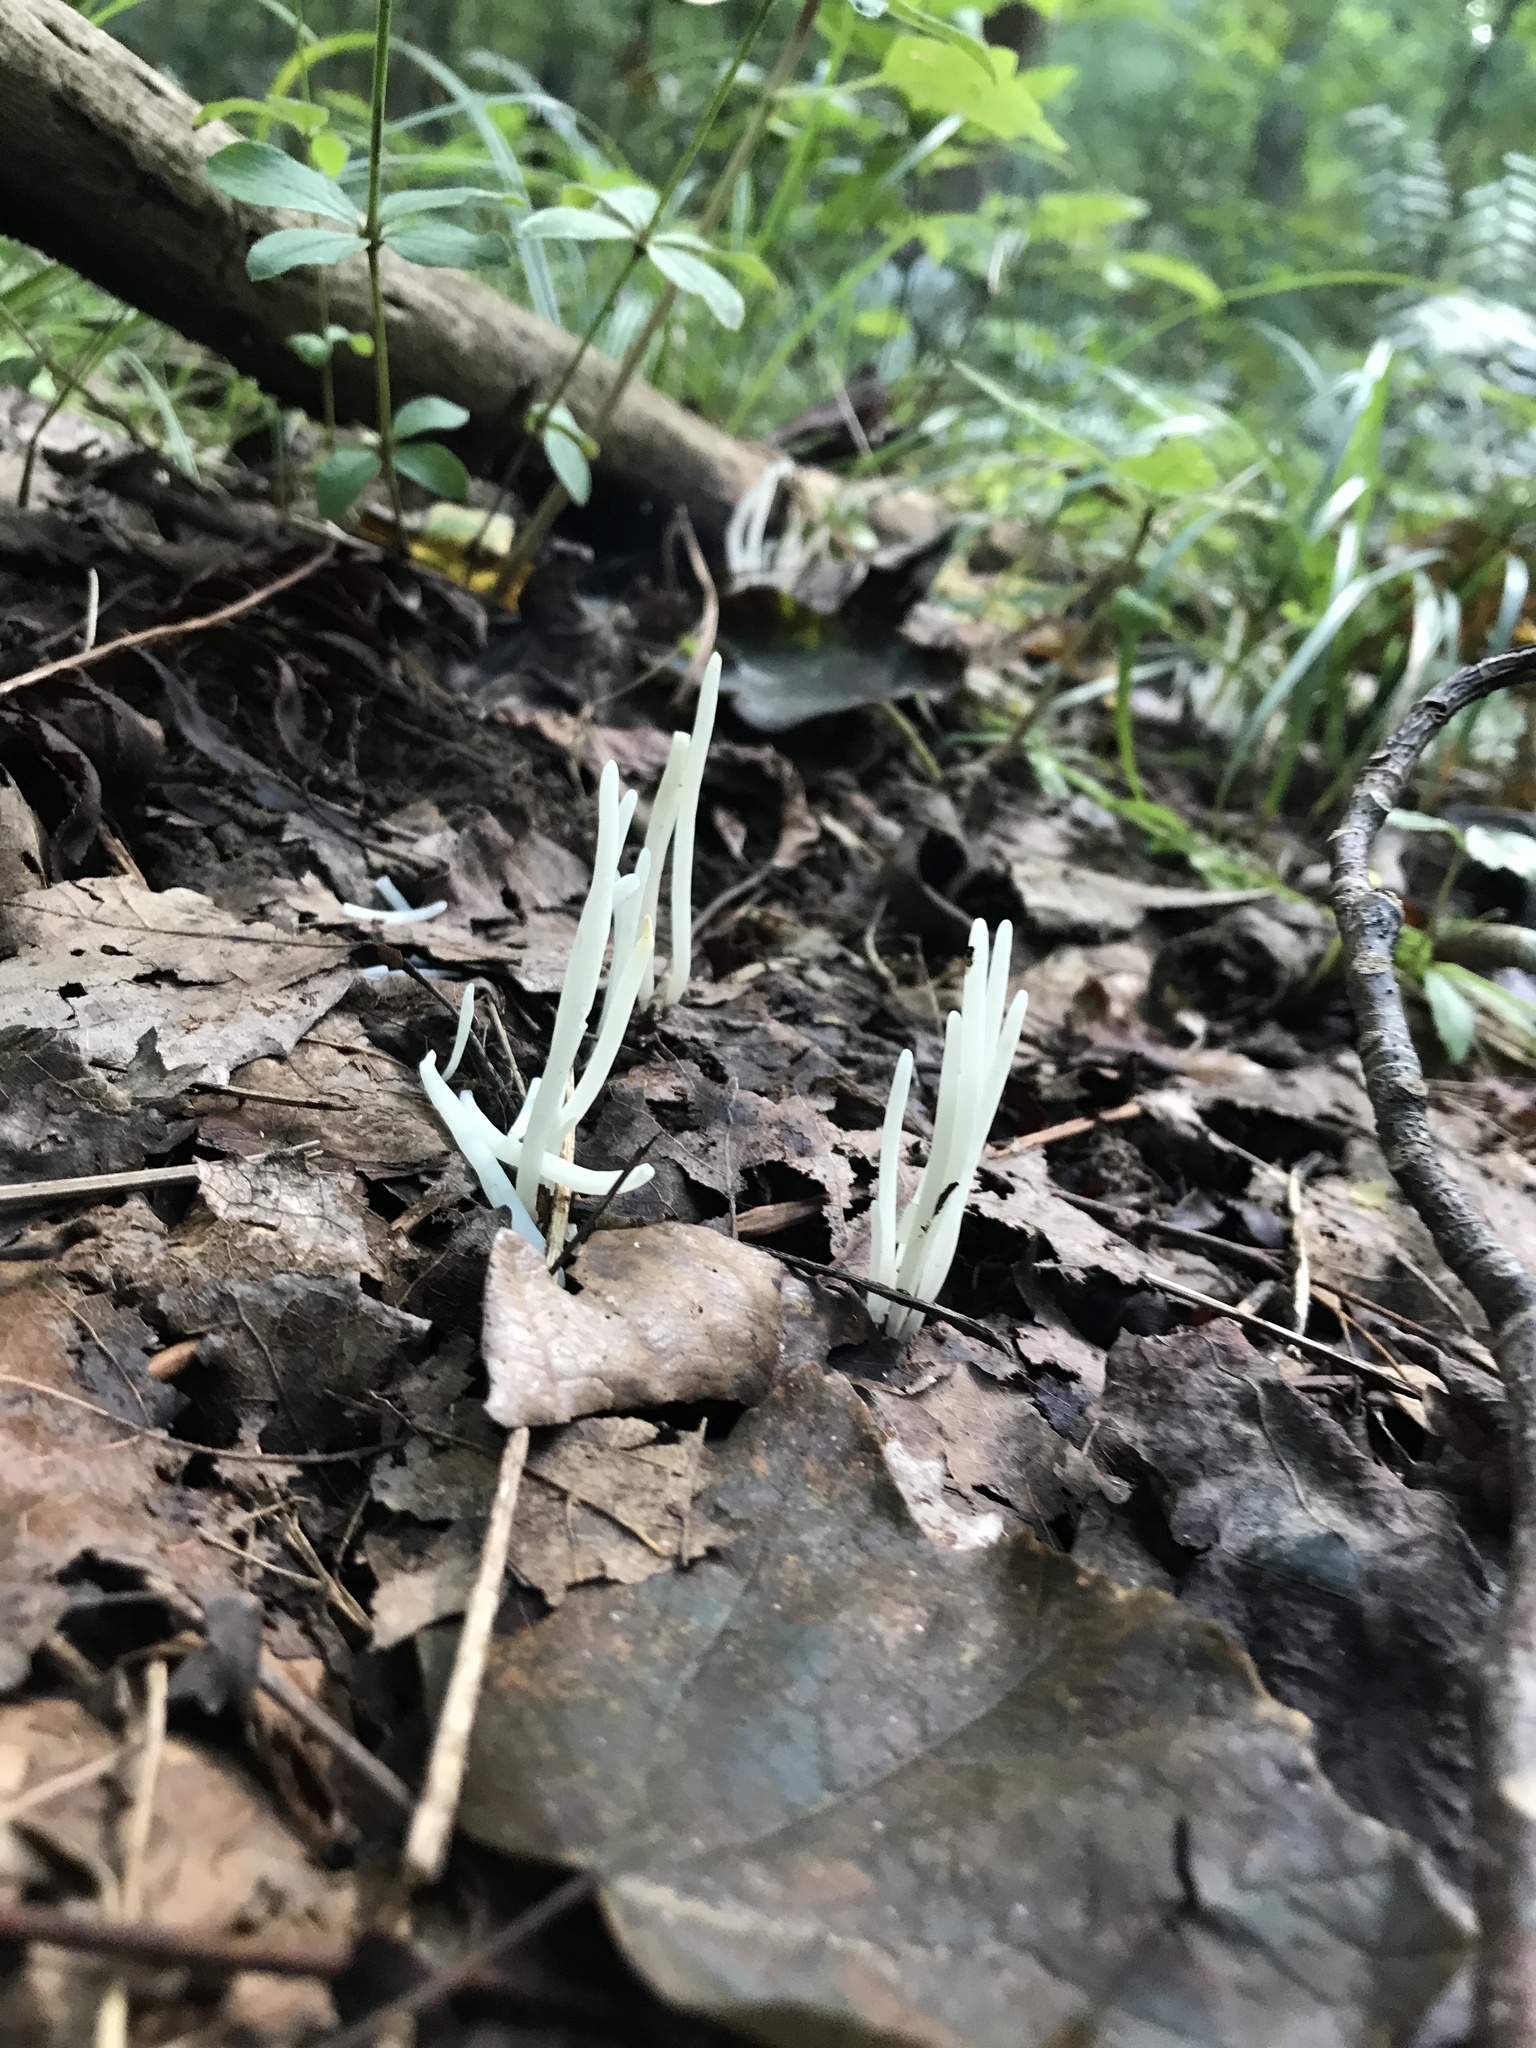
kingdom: Fungi
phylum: Basidiomycota
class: Agaricomycetes
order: Agaricales
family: Clavariaceae
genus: Clavaria
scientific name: Clavaria fragilis
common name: White spindles
